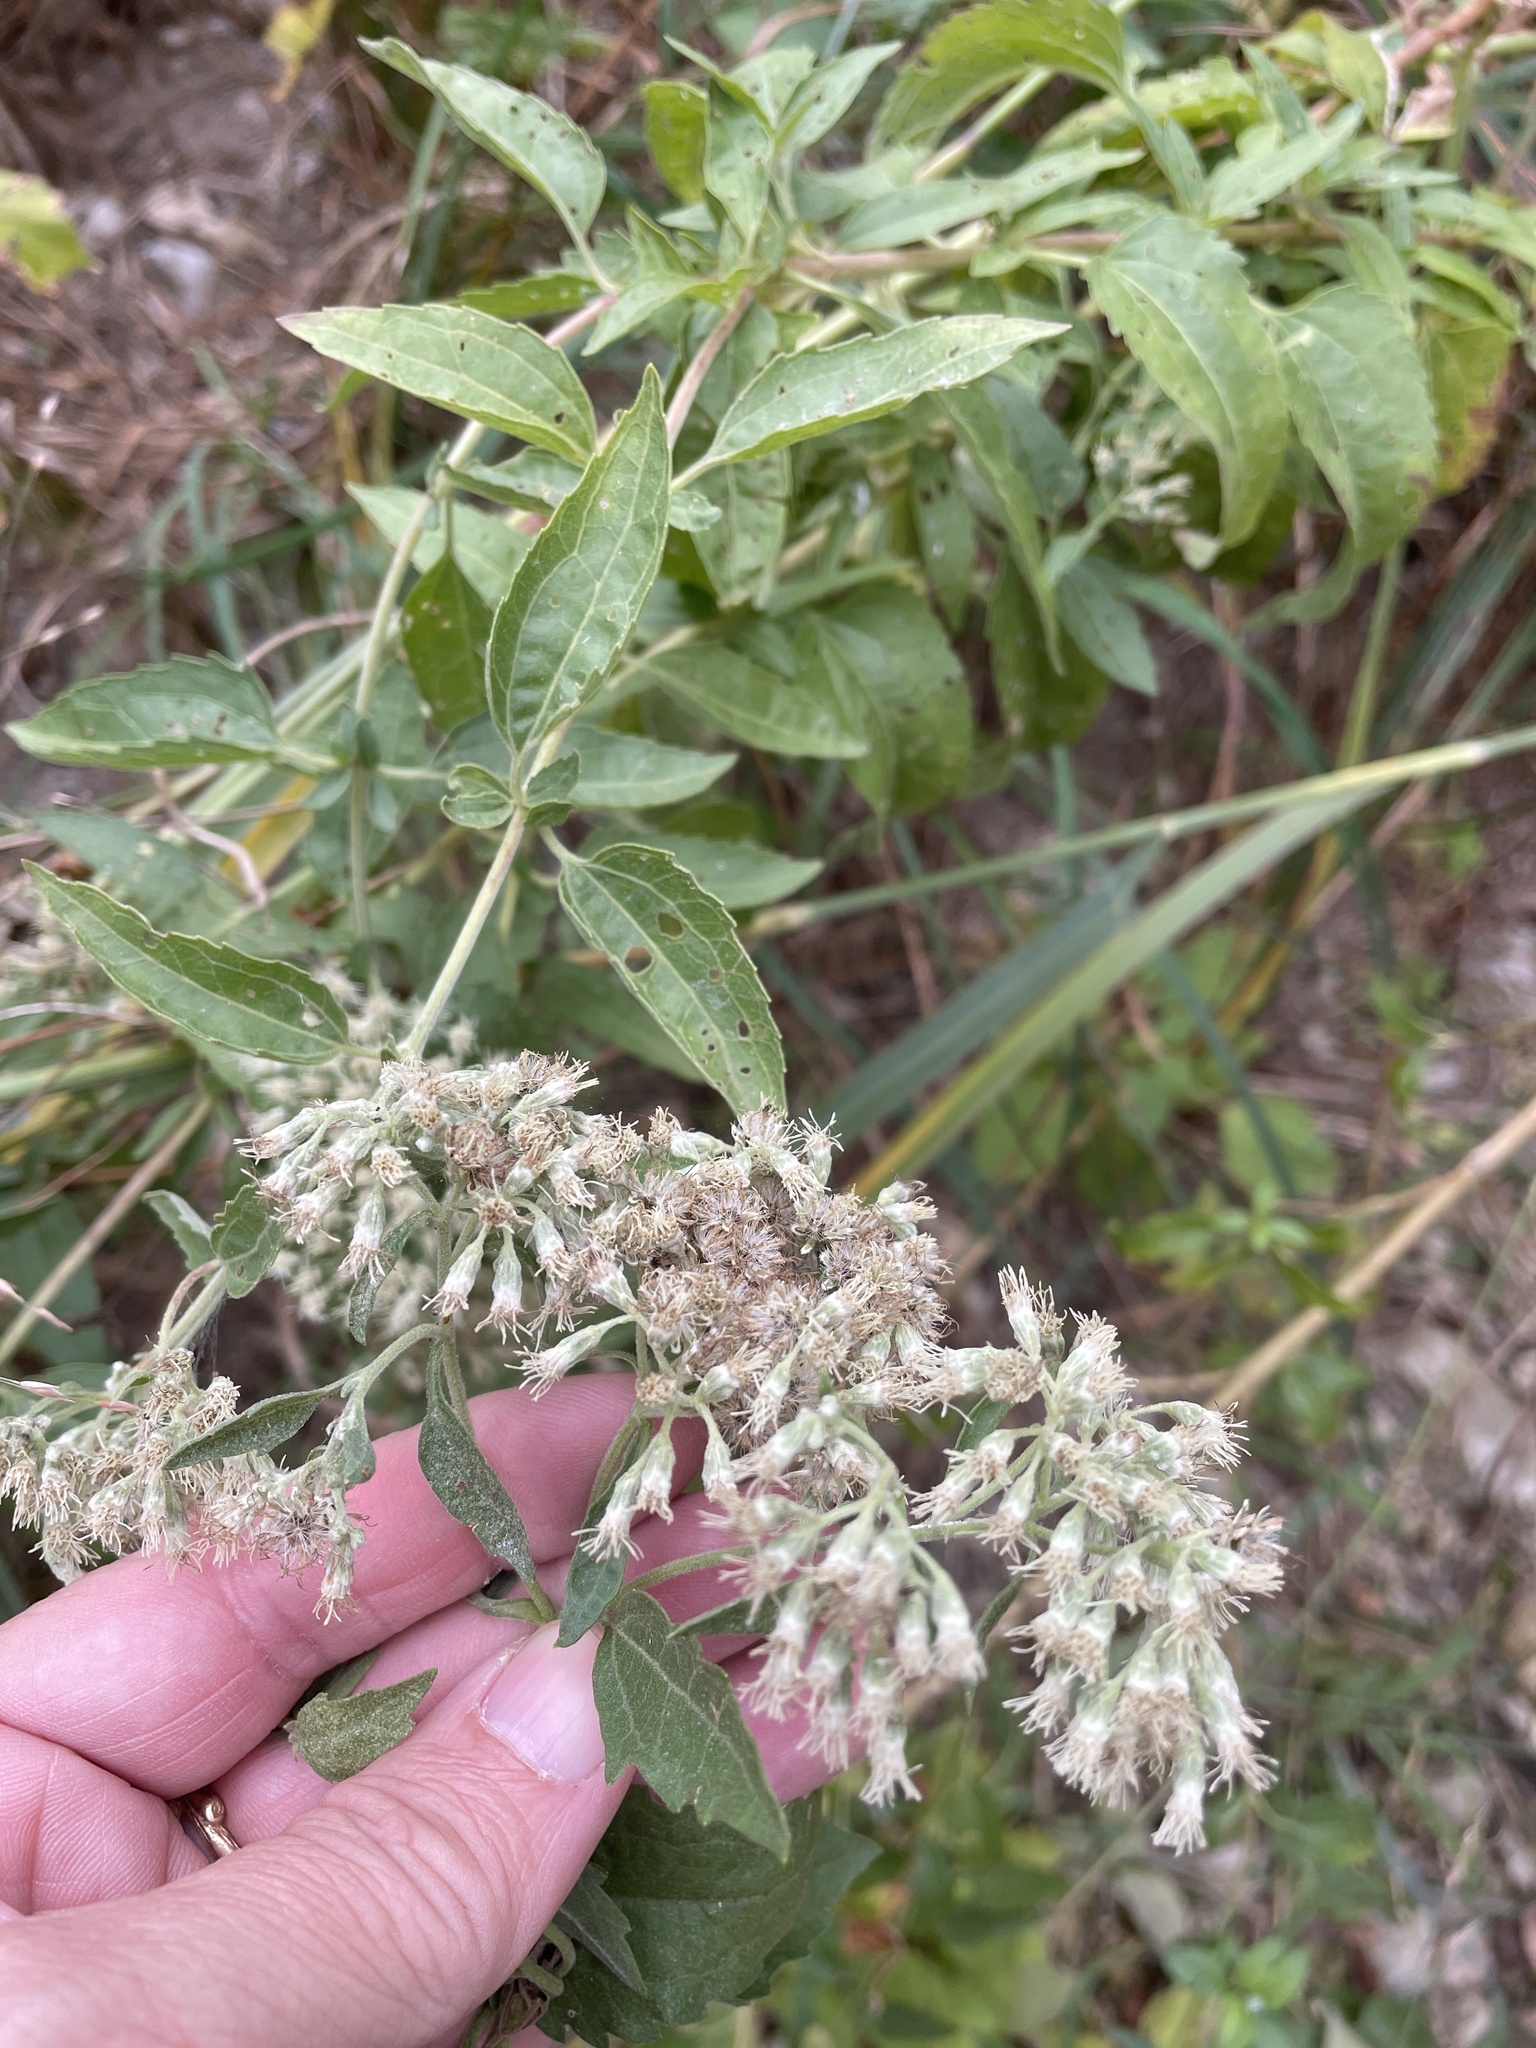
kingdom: Plantae
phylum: Tracheophyta
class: Magnoliopsida
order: Asterales
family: Asteraceae
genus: Eupatorium
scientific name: Eupatorium serotinum
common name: Late boneset
